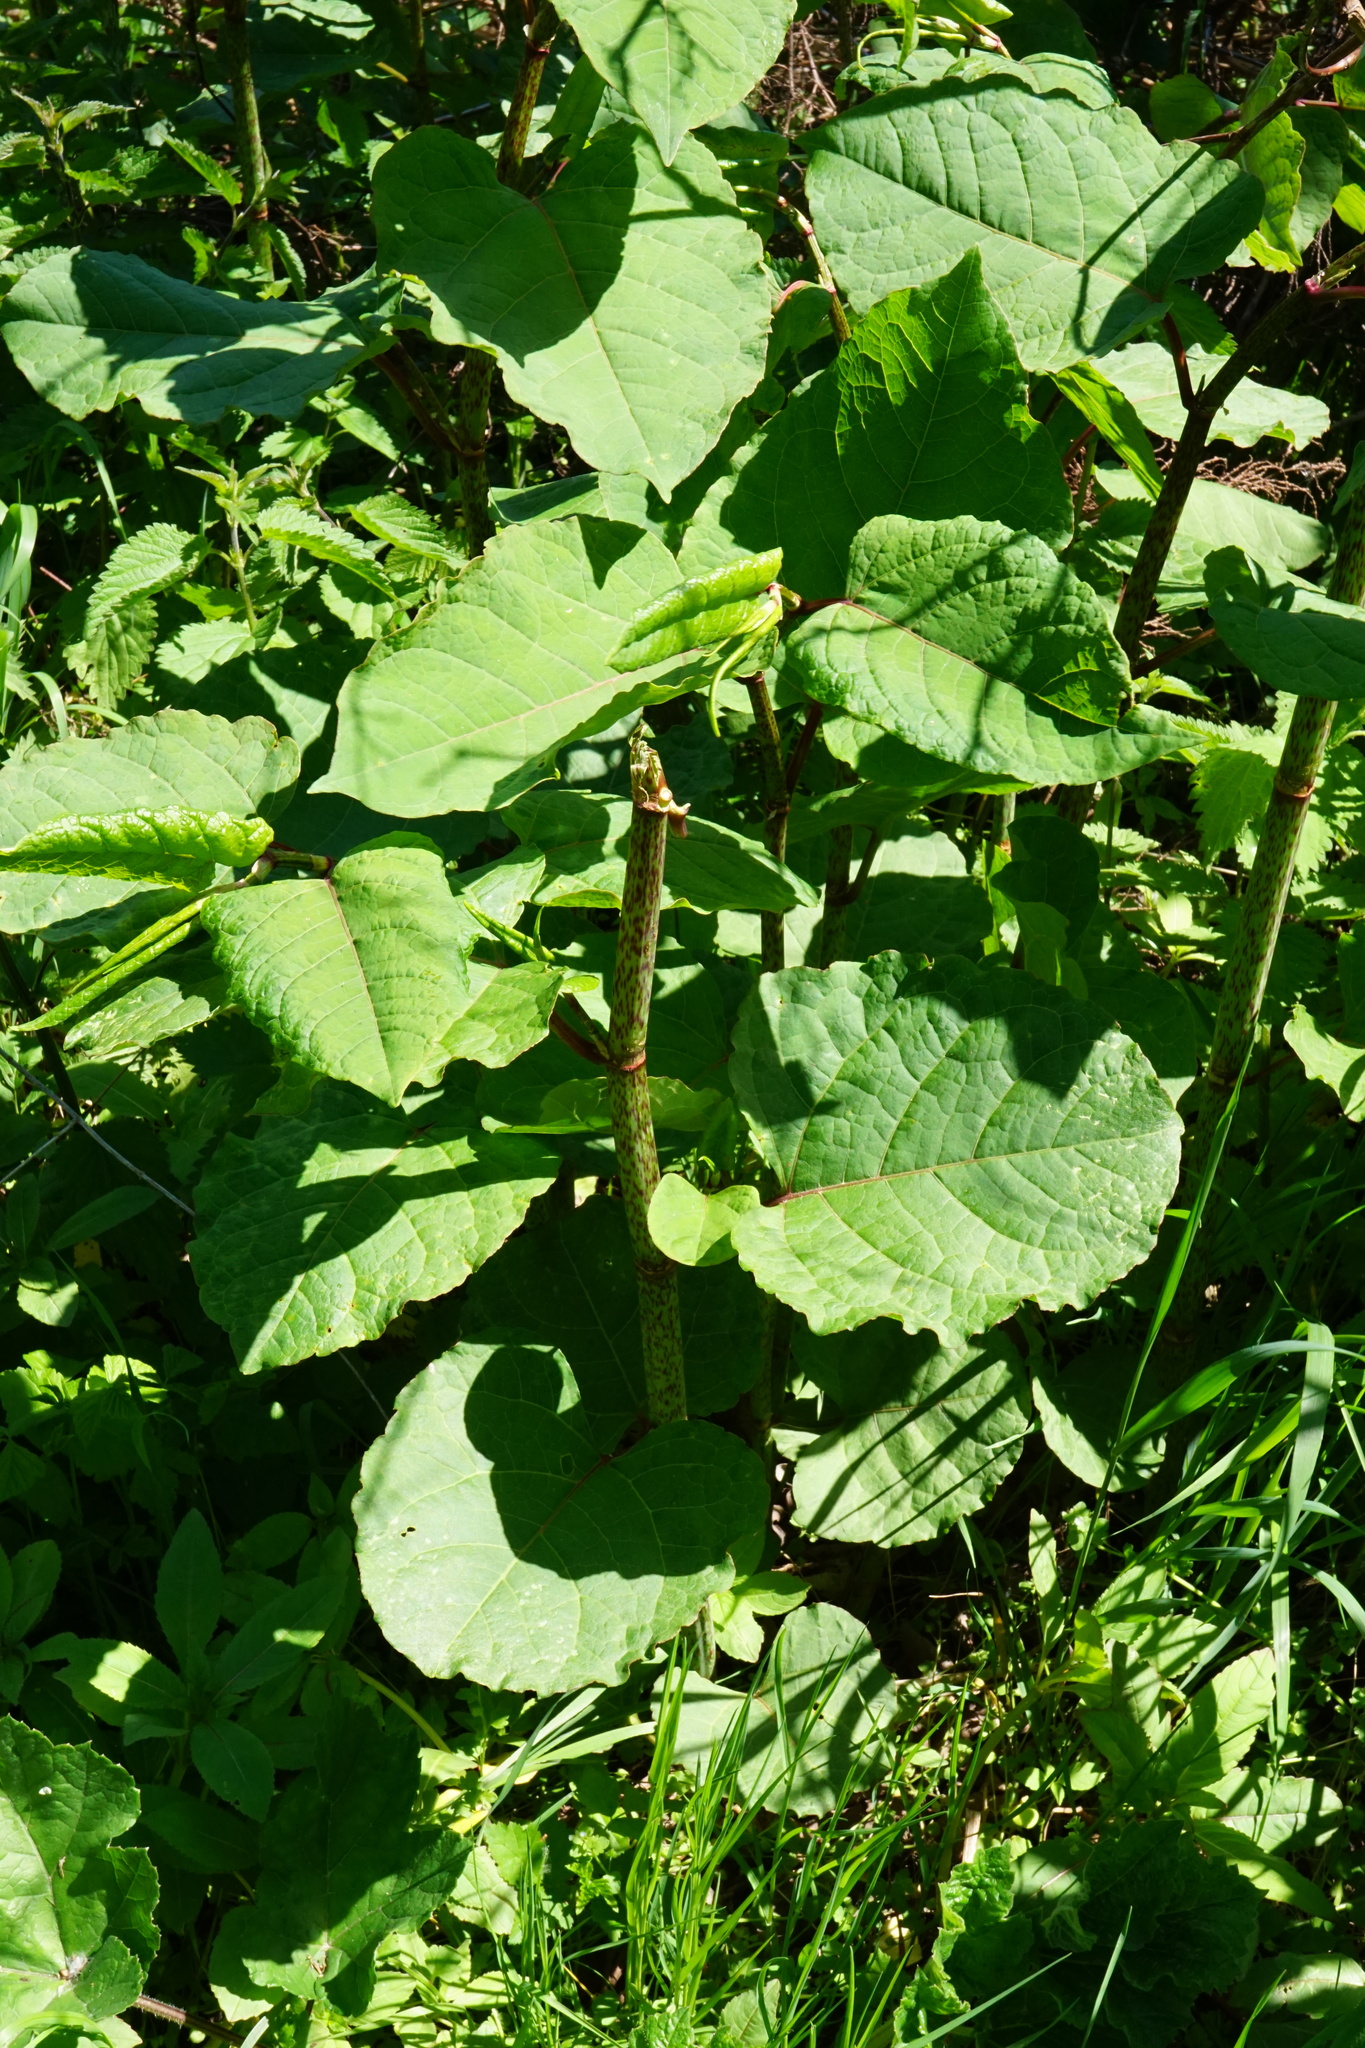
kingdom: Plantae
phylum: Tracheophyta
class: Magnoliopsida
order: Caryophyllales
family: Polygonaceae
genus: Reynoutria
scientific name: Reynoutria bohemica
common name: Bohemian knotweed
